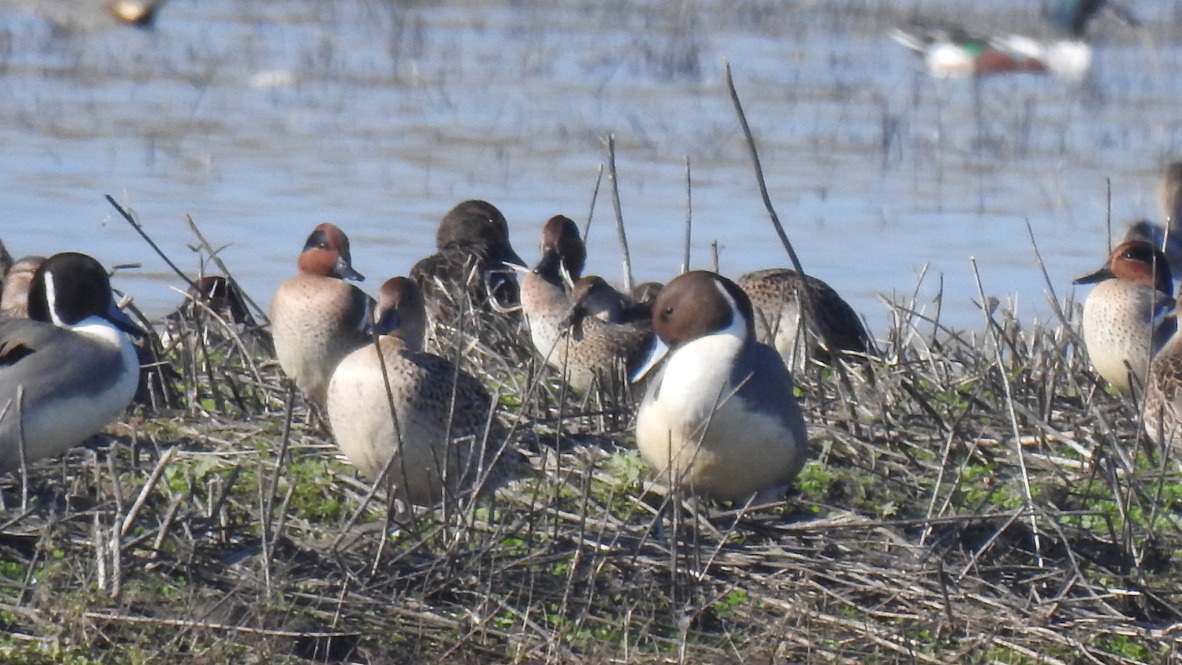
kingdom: Animalia
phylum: Chordata
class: Aves
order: Anseriformes
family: Anatidae
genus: Anas
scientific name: Anas acuta
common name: Northern pintail
